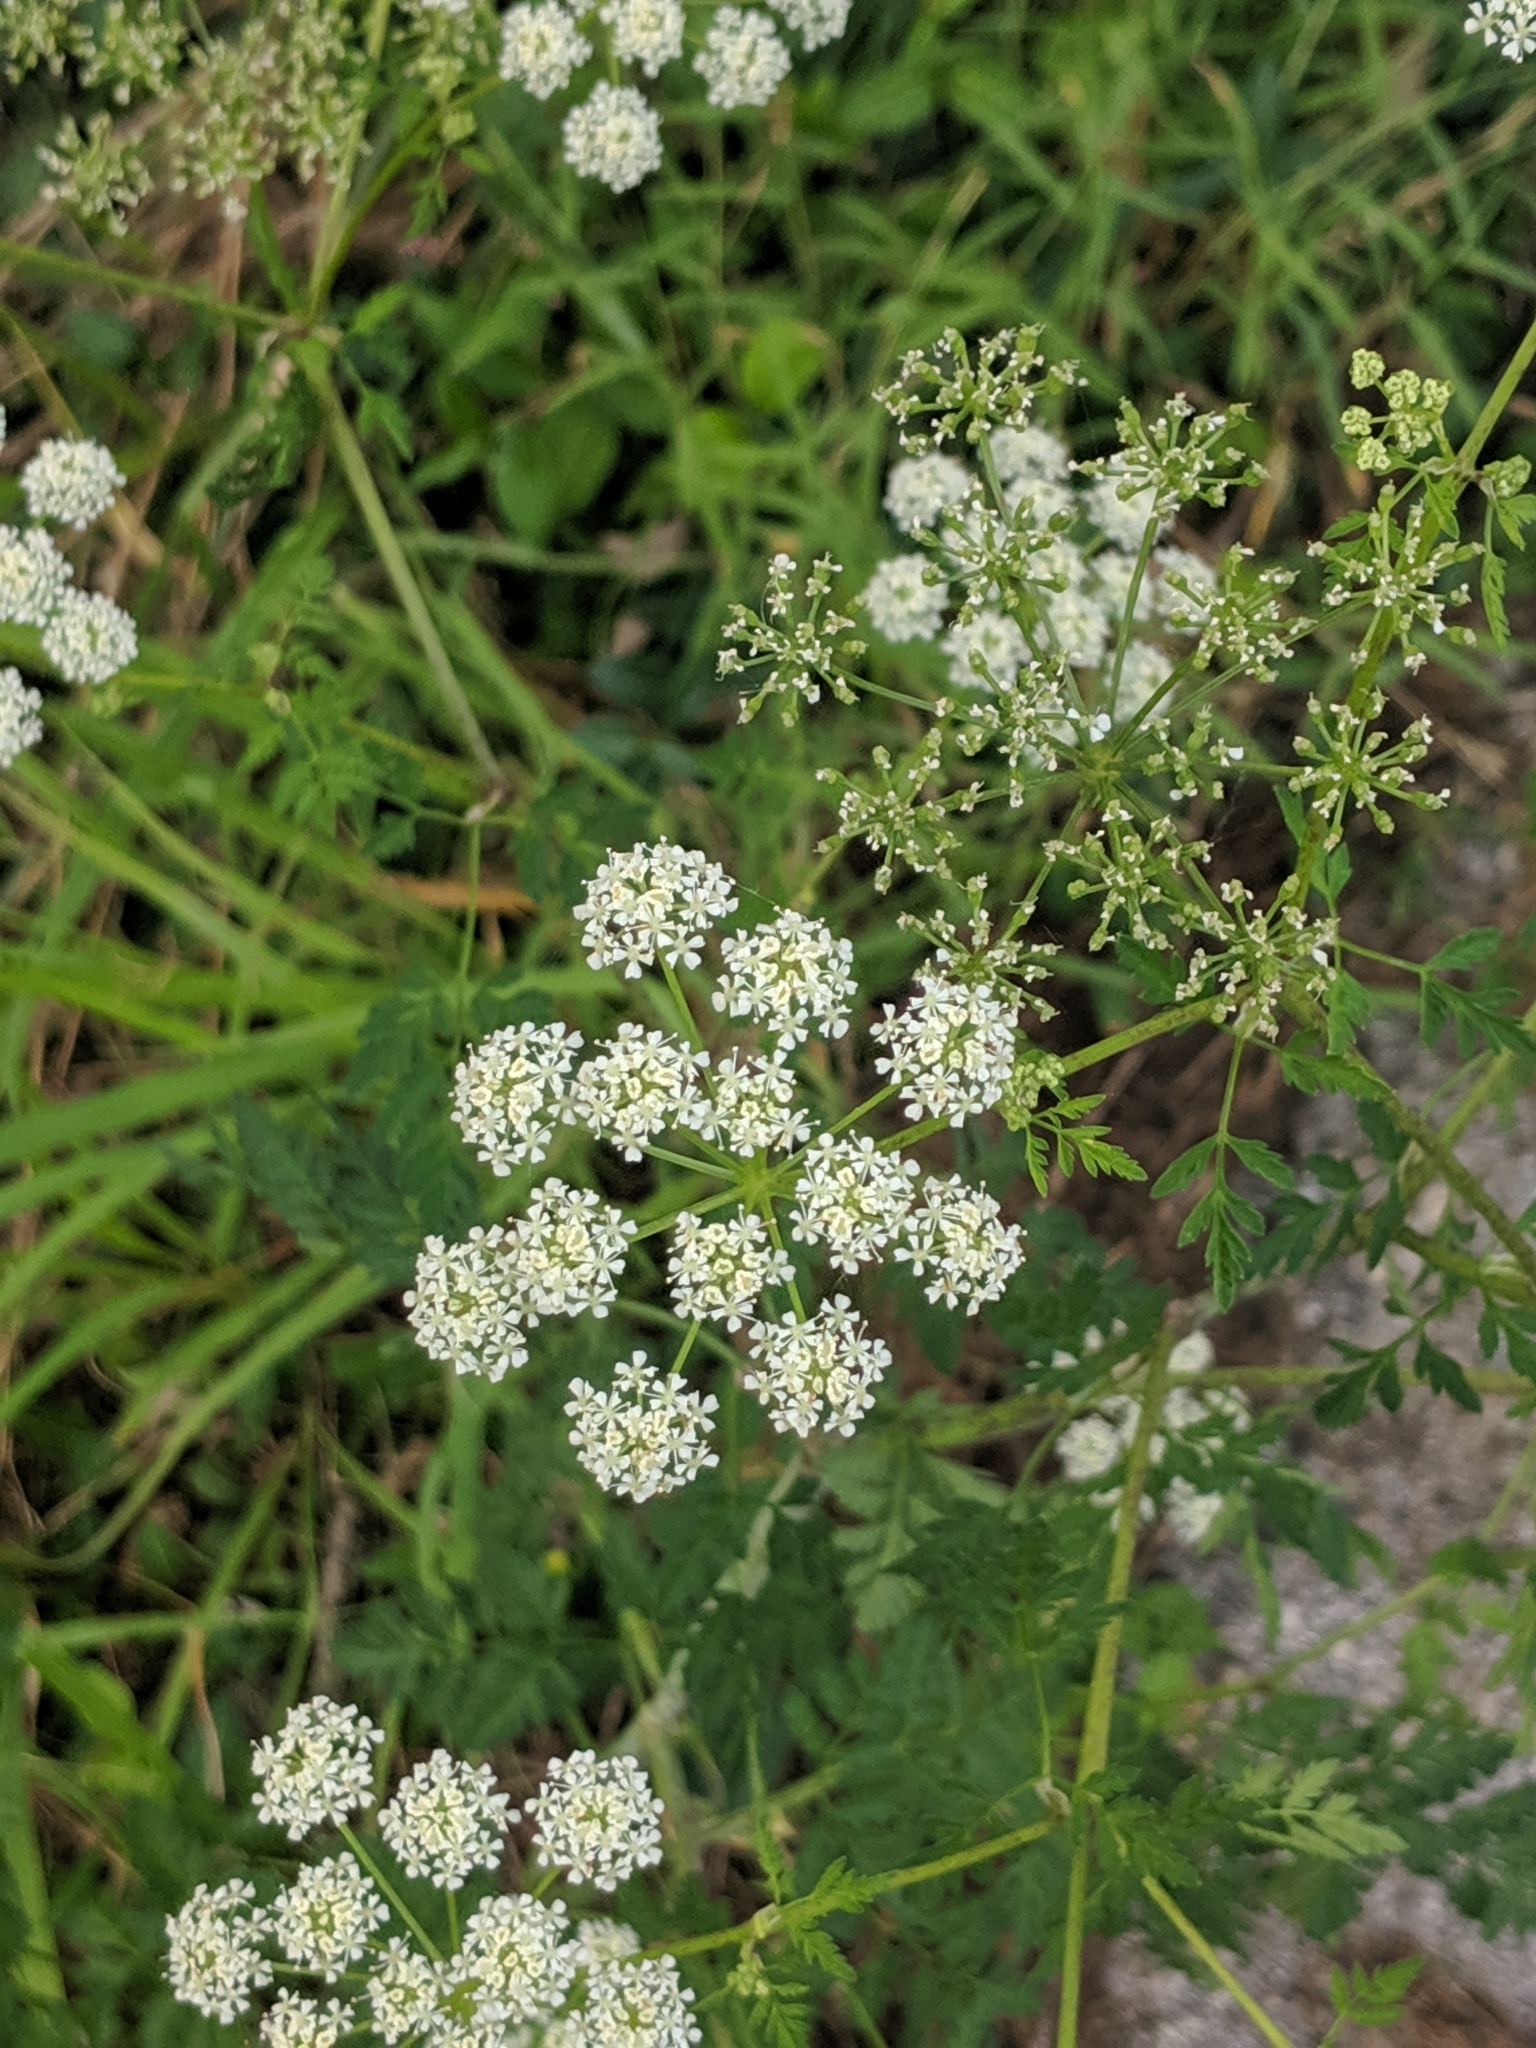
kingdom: Plantae
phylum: Tracheophyta
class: Magnoliopsida
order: Apiales
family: Apiaceae
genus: Conium
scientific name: Conium maculatum
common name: Hemlock
